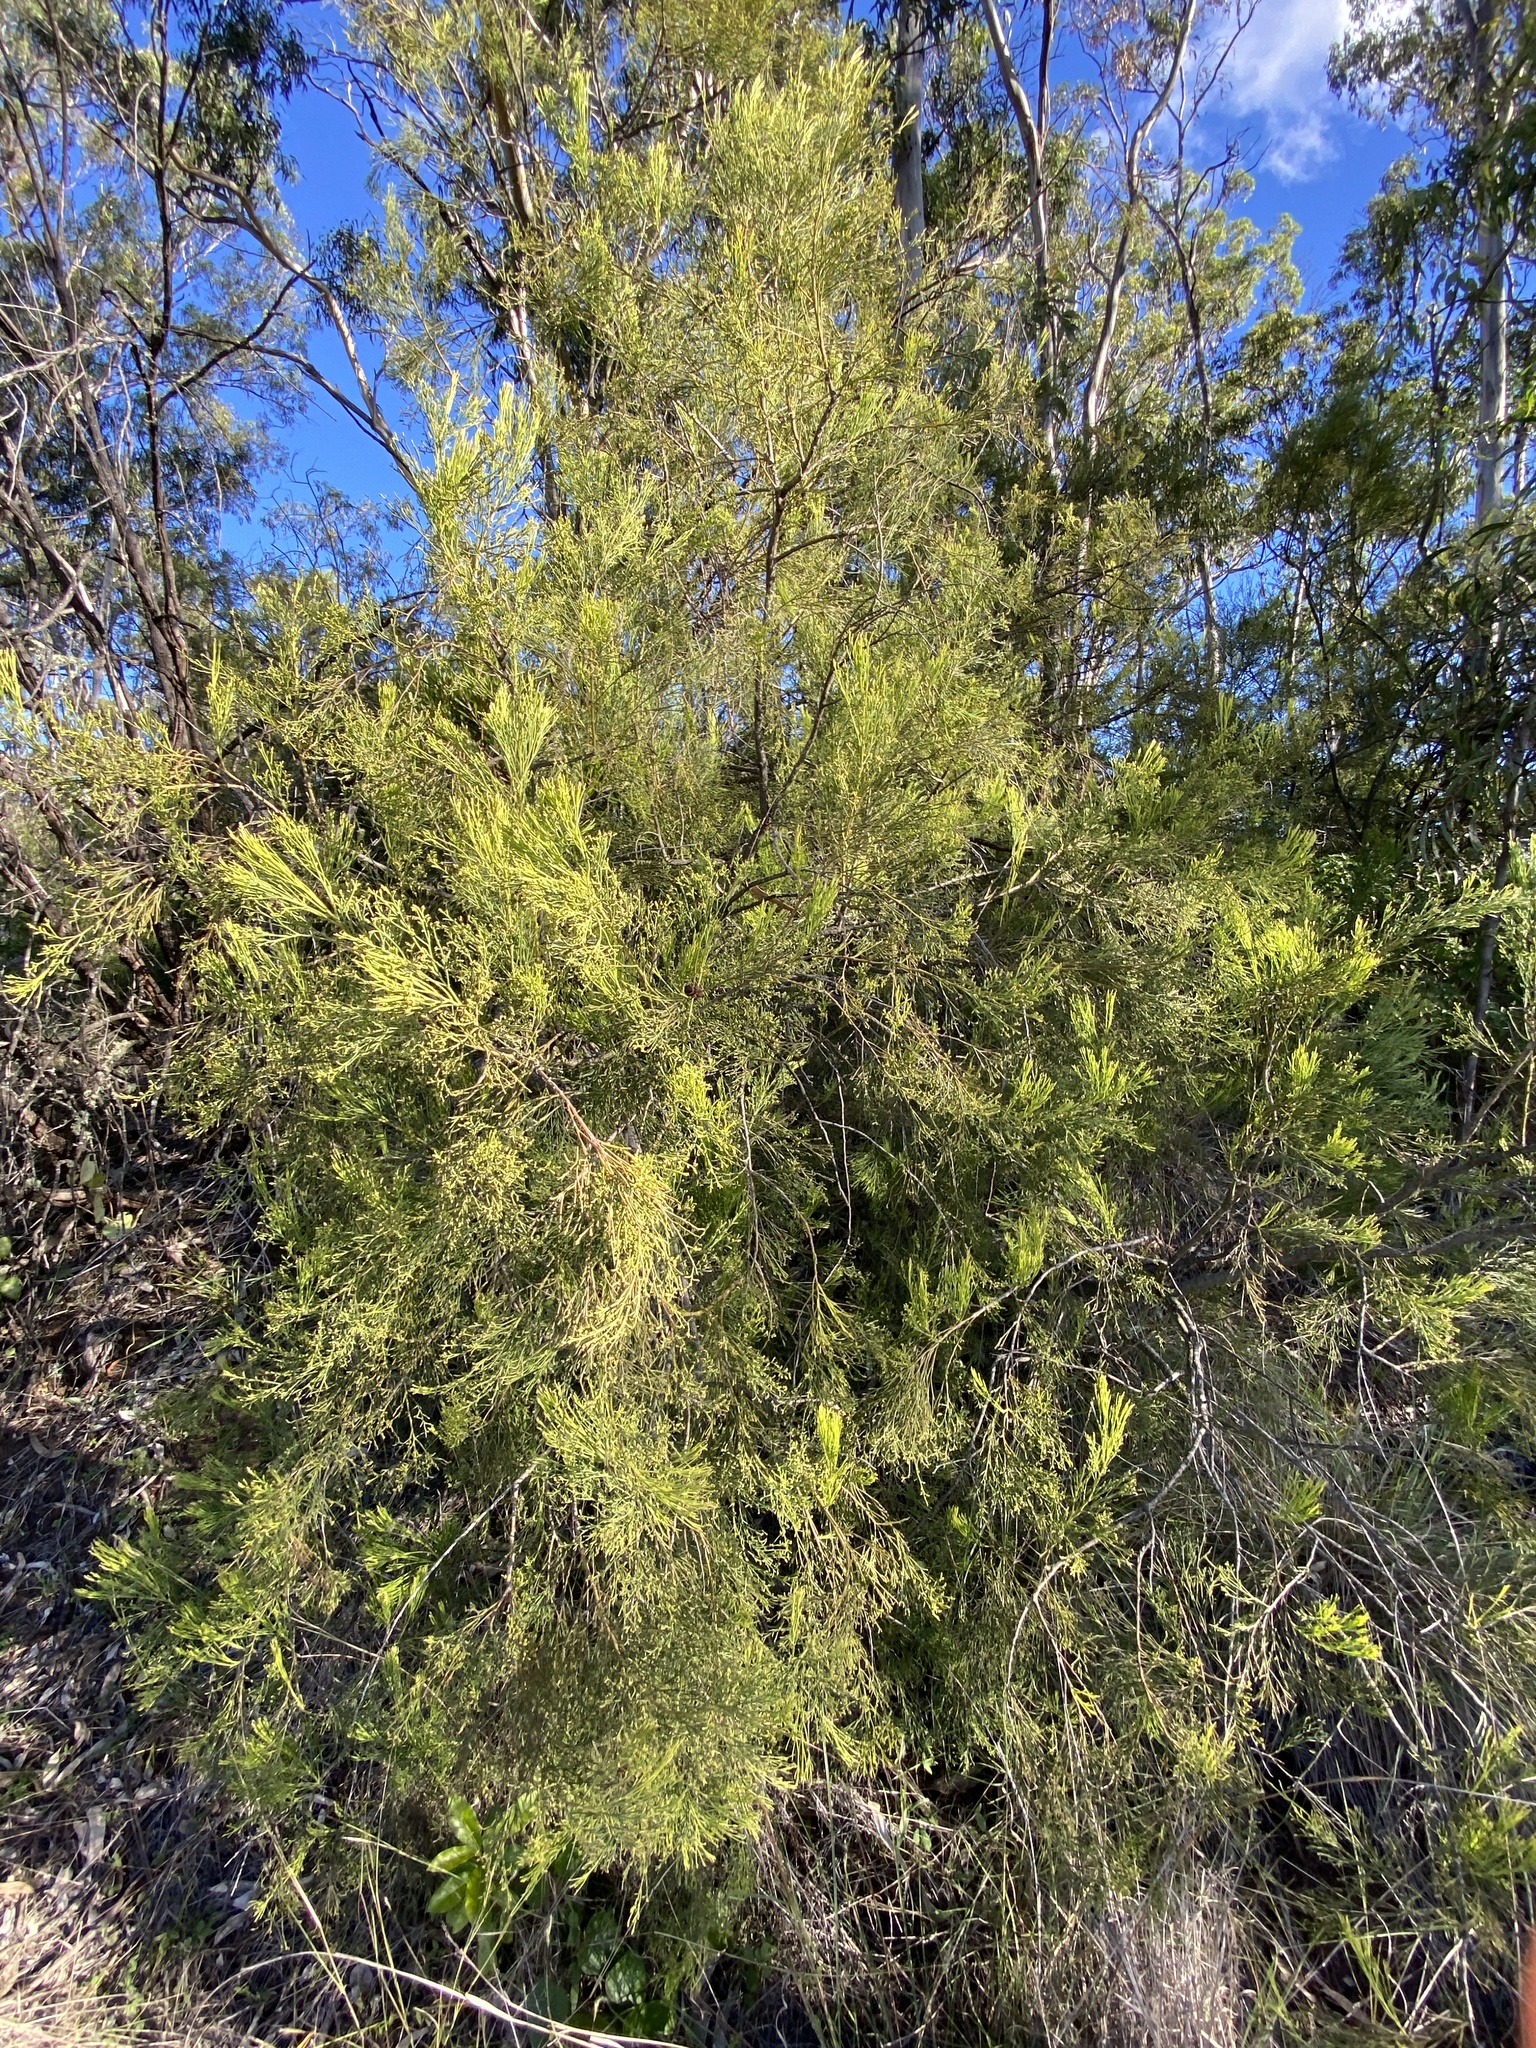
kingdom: Plantae
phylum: Tracheophyta
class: Magnoliopsida
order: Santalales
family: Santalaceae
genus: Exocarpos
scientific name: Exocarpos cupressiformis
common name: Cherry ballart
